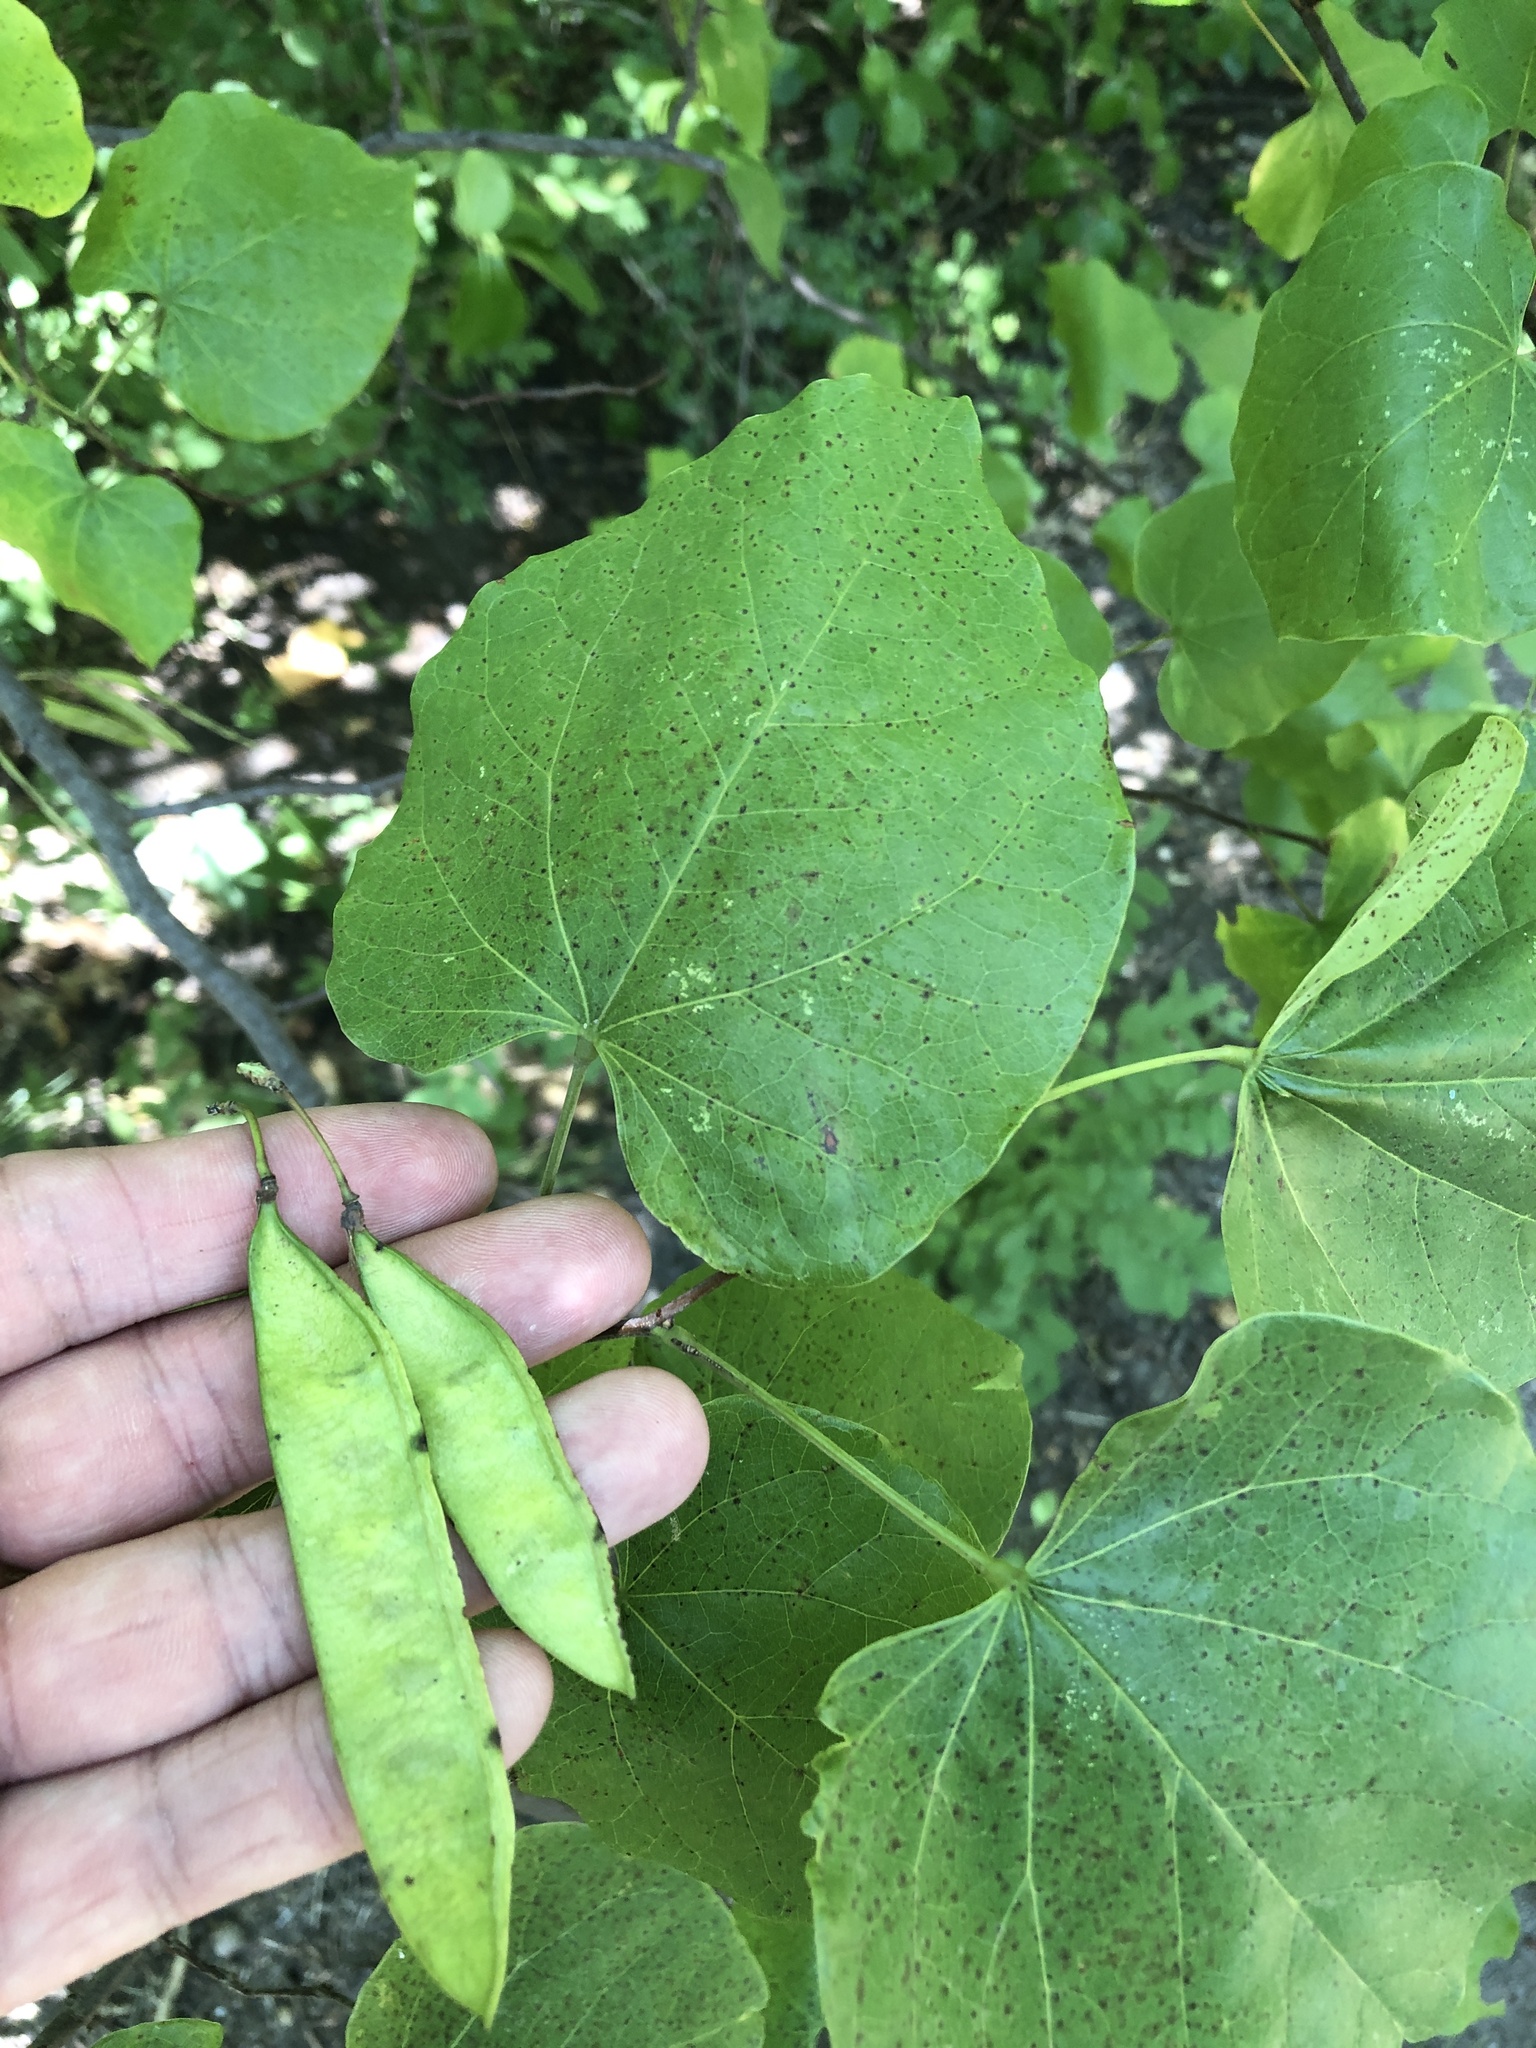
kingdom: Plantae
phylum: Tracheophyta
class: Magnoliopsida
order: Fabales
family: Fabaceae
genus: Cercis
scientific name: Cercis canadensis
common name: Eastern redbud
